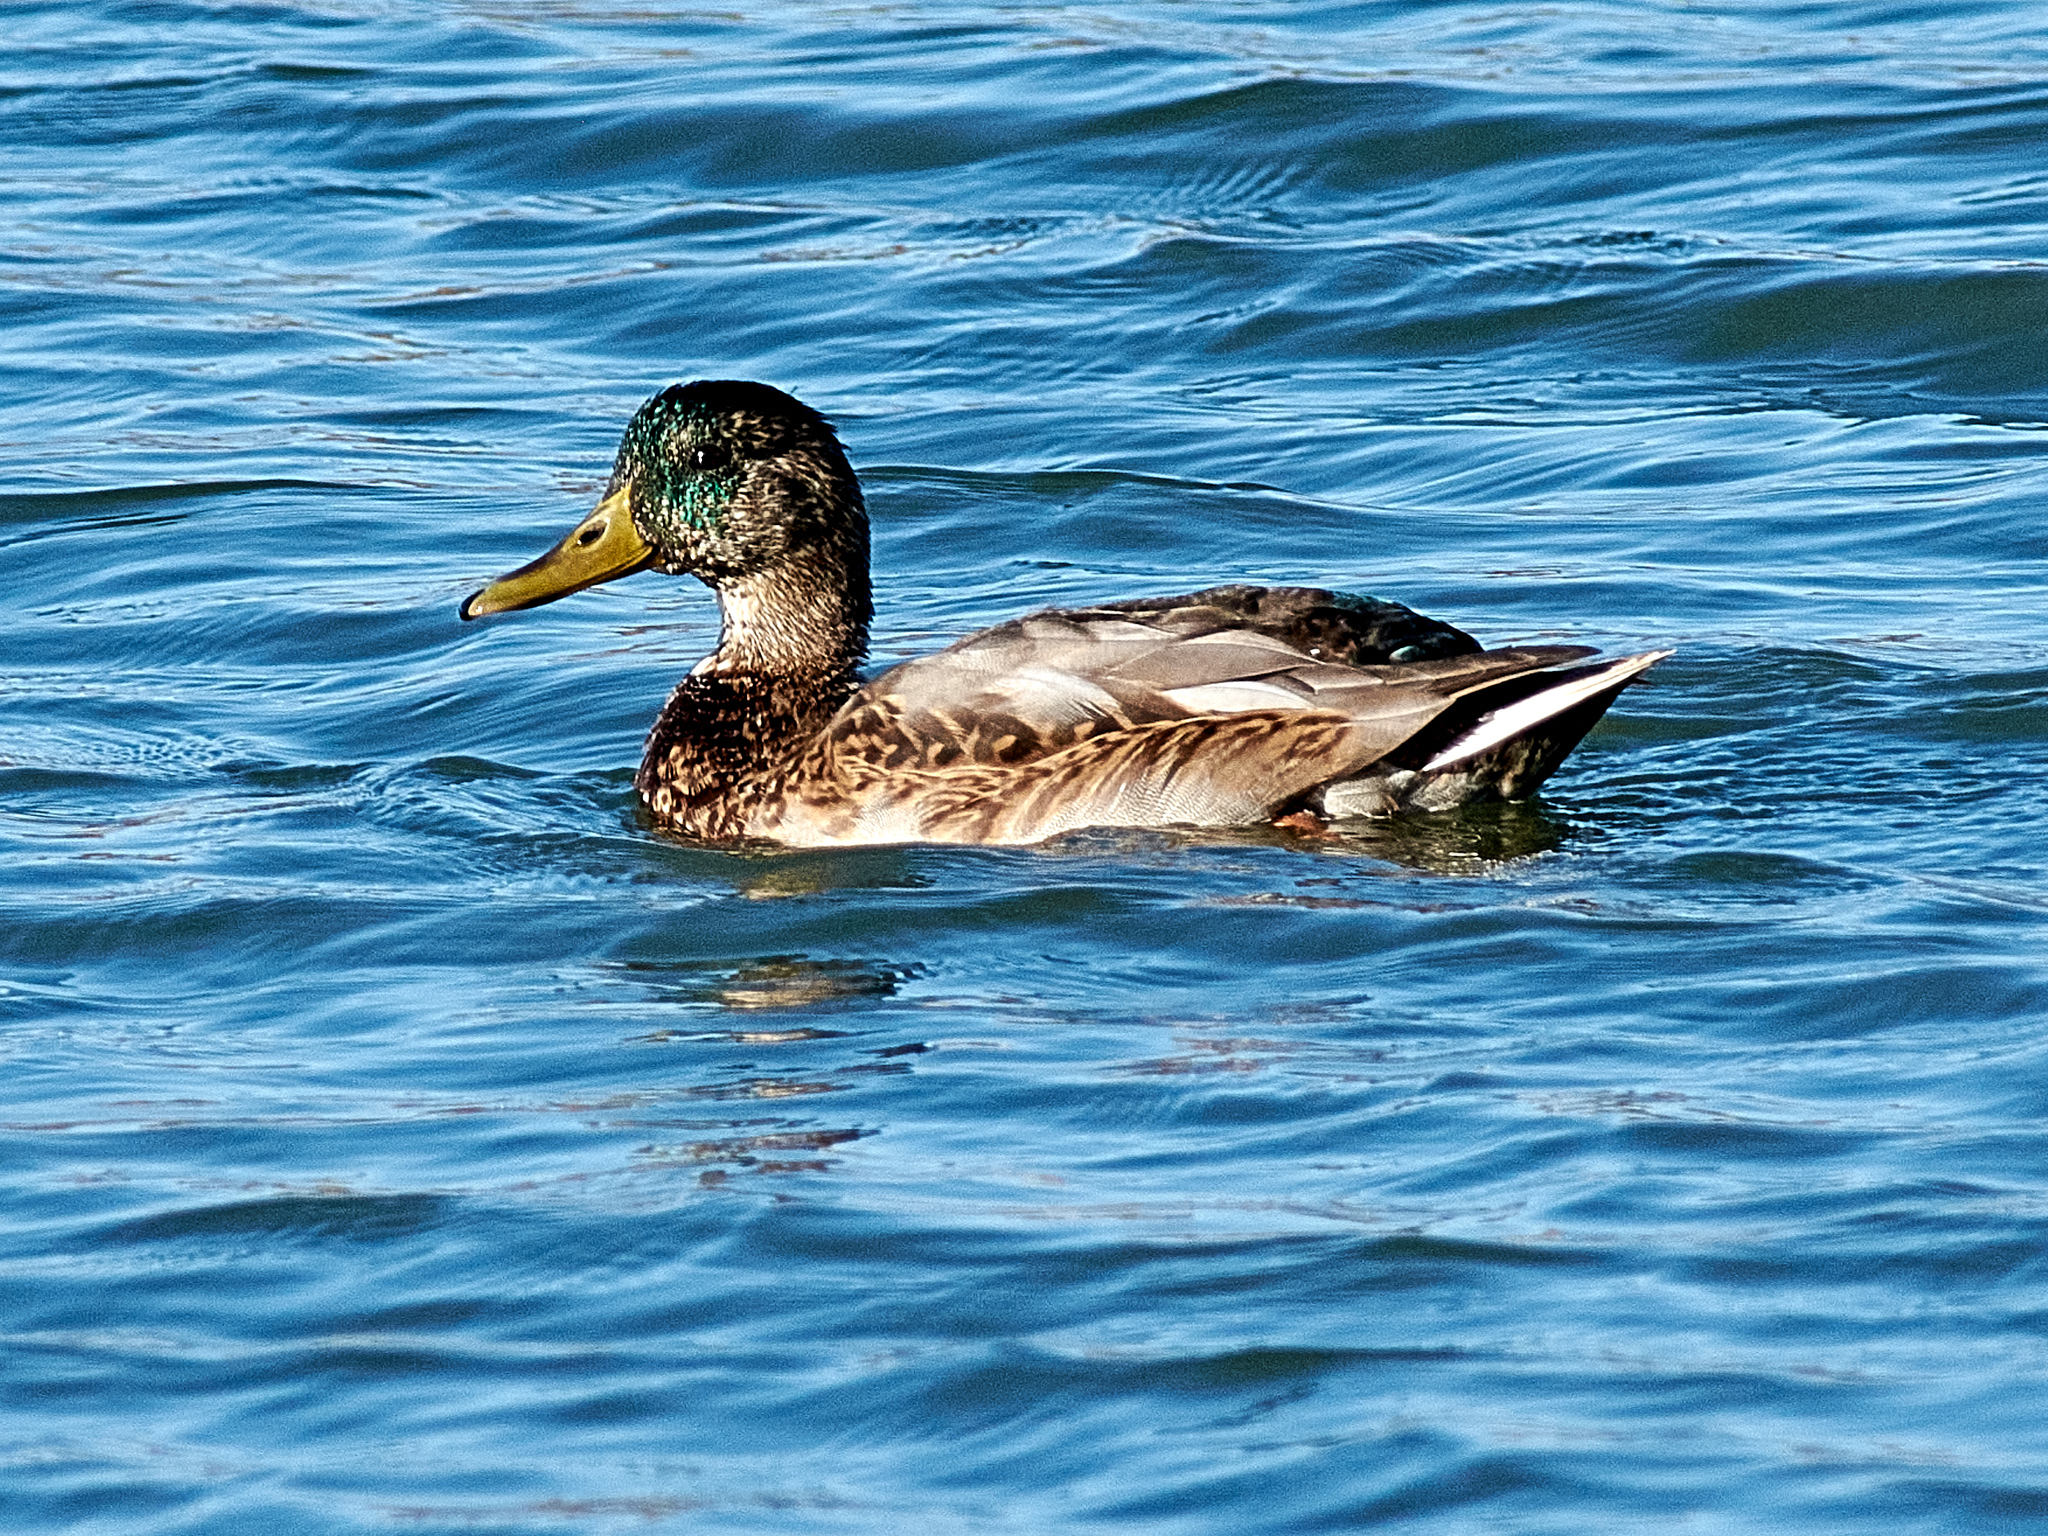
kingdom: Animalia
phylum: Chordata
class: Aves
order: Anseriformes
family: Anatidae
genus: Anas
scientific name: Anas platyrhynchos
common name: Mallard
